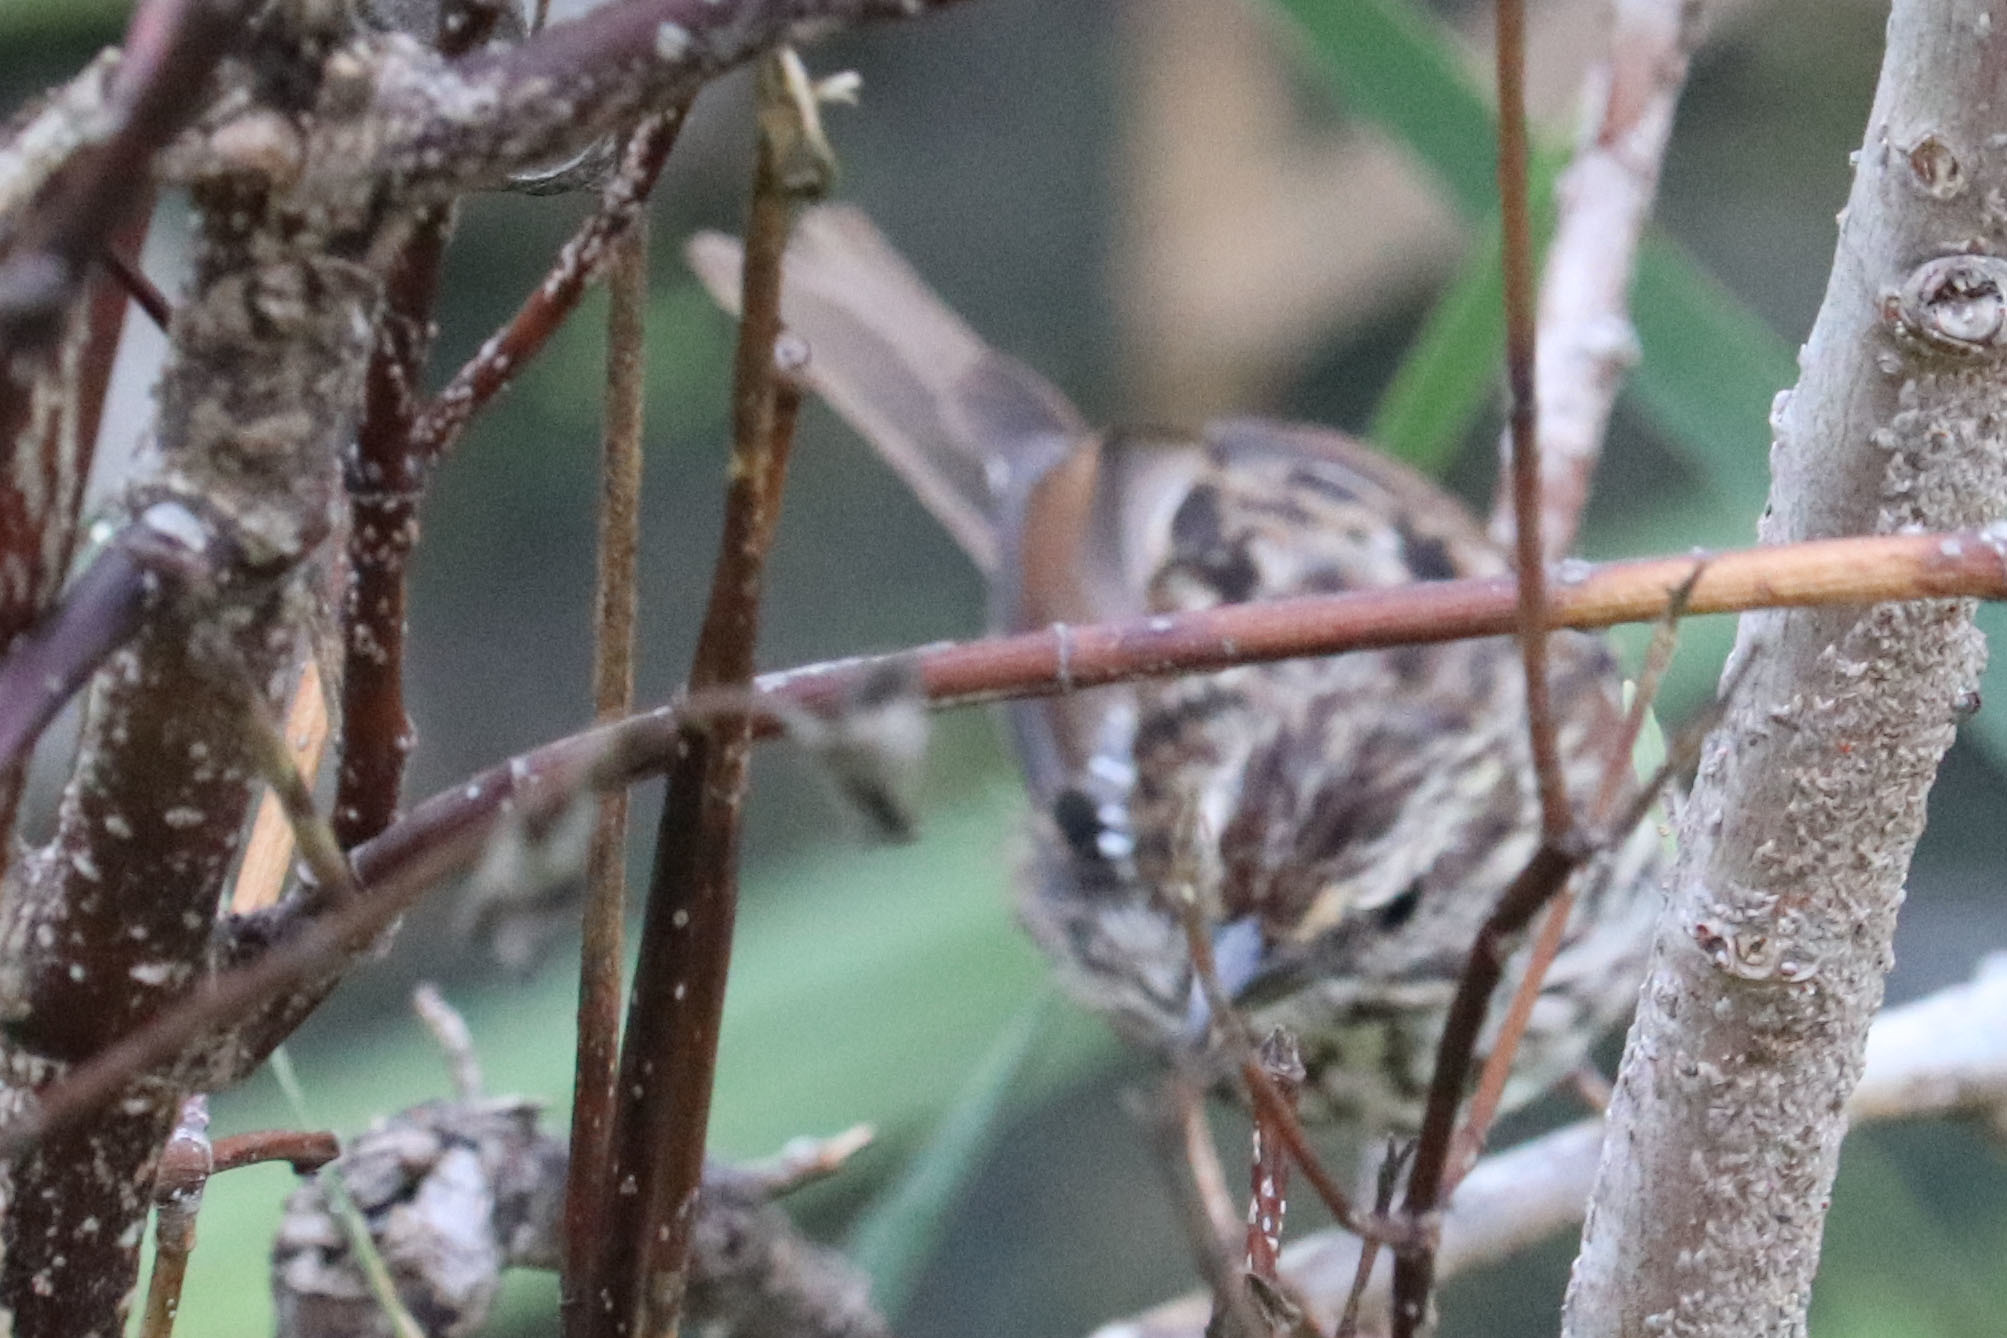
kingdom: Animalia
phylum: Chordata
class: Aves
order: Passeriformes
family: Passerellidae
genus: Melospiza
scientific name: Melospiza melodia
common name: Song sparrow
